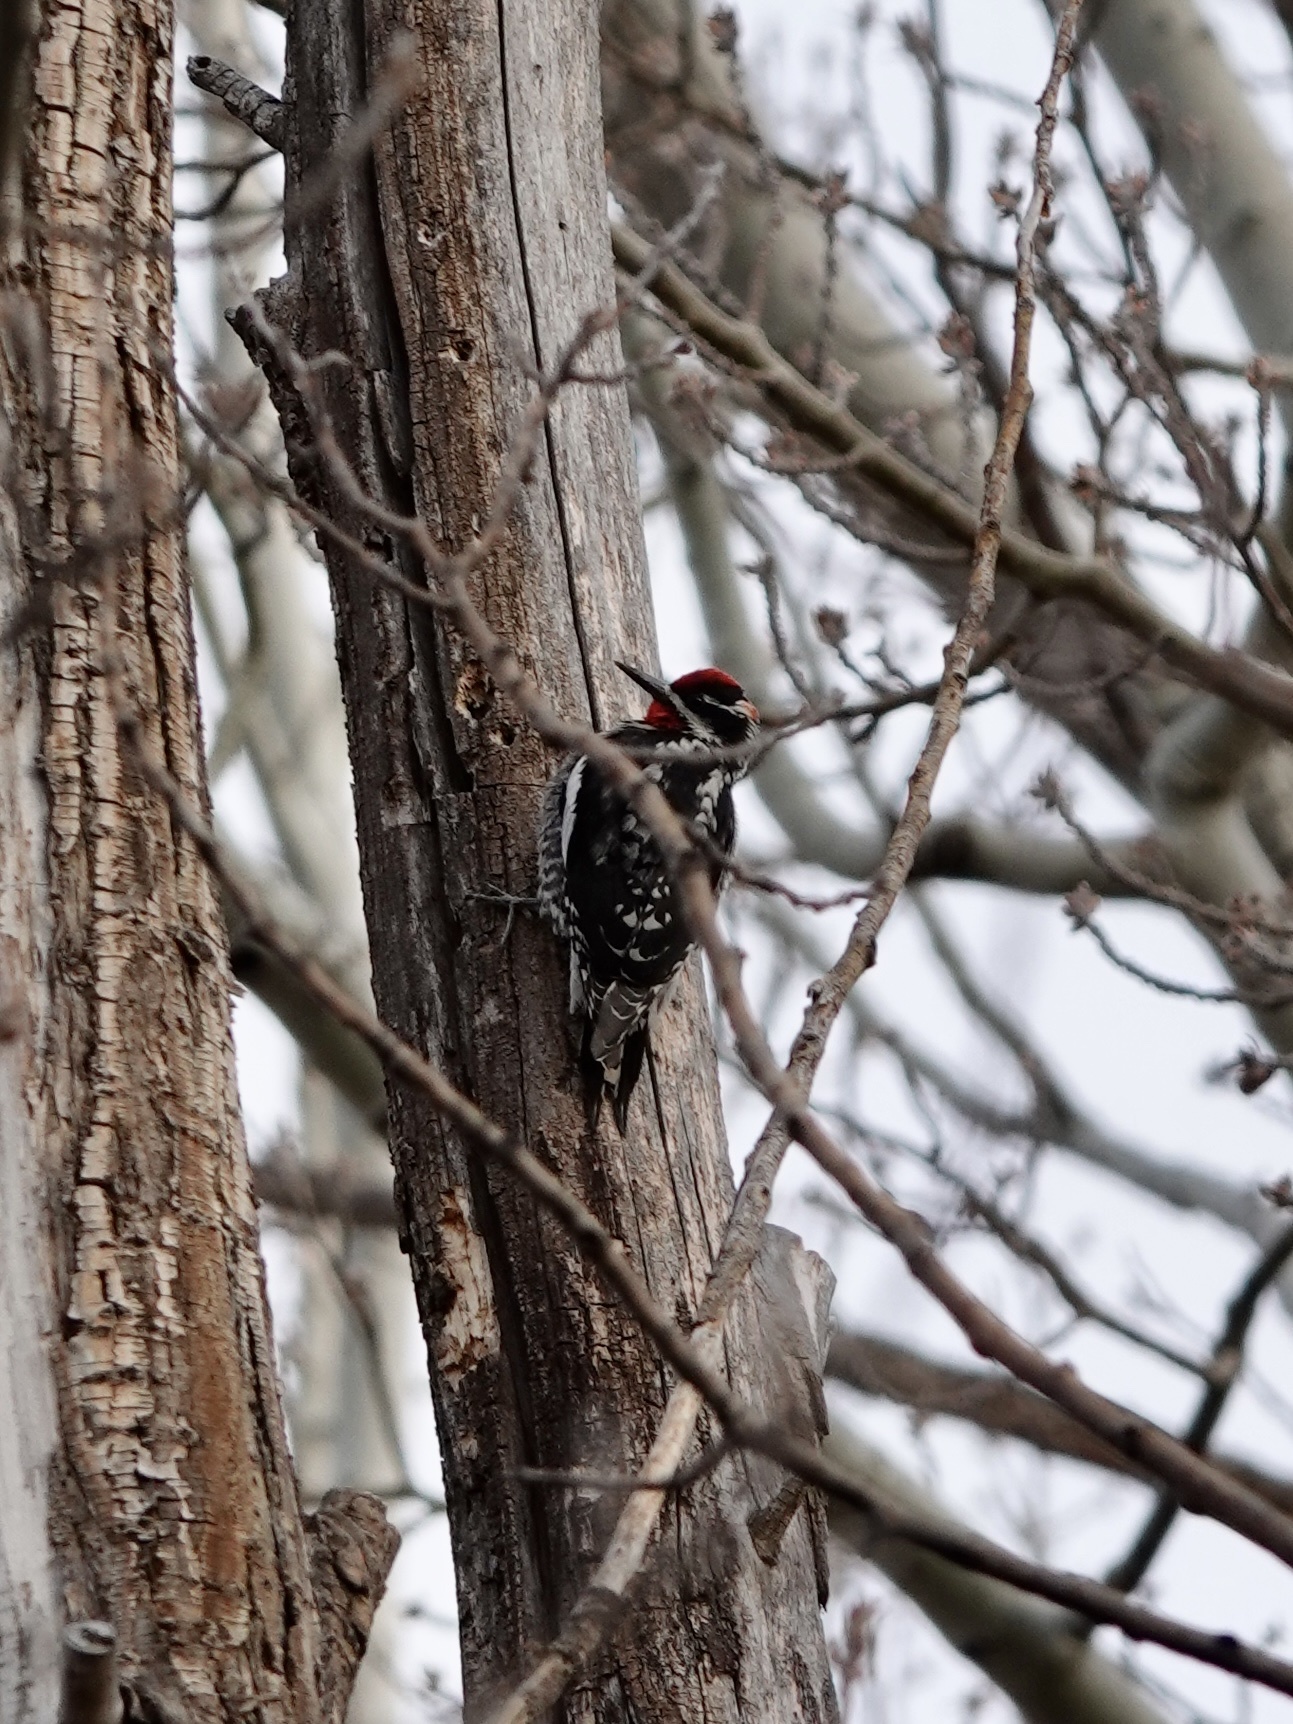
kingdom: Animalia
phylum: Chordata
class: Aves
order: Piciformes
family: Picidae
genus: Sphyrapicus
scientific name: Sphyrapicus nuchalis
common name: Red-naped sapsucker
